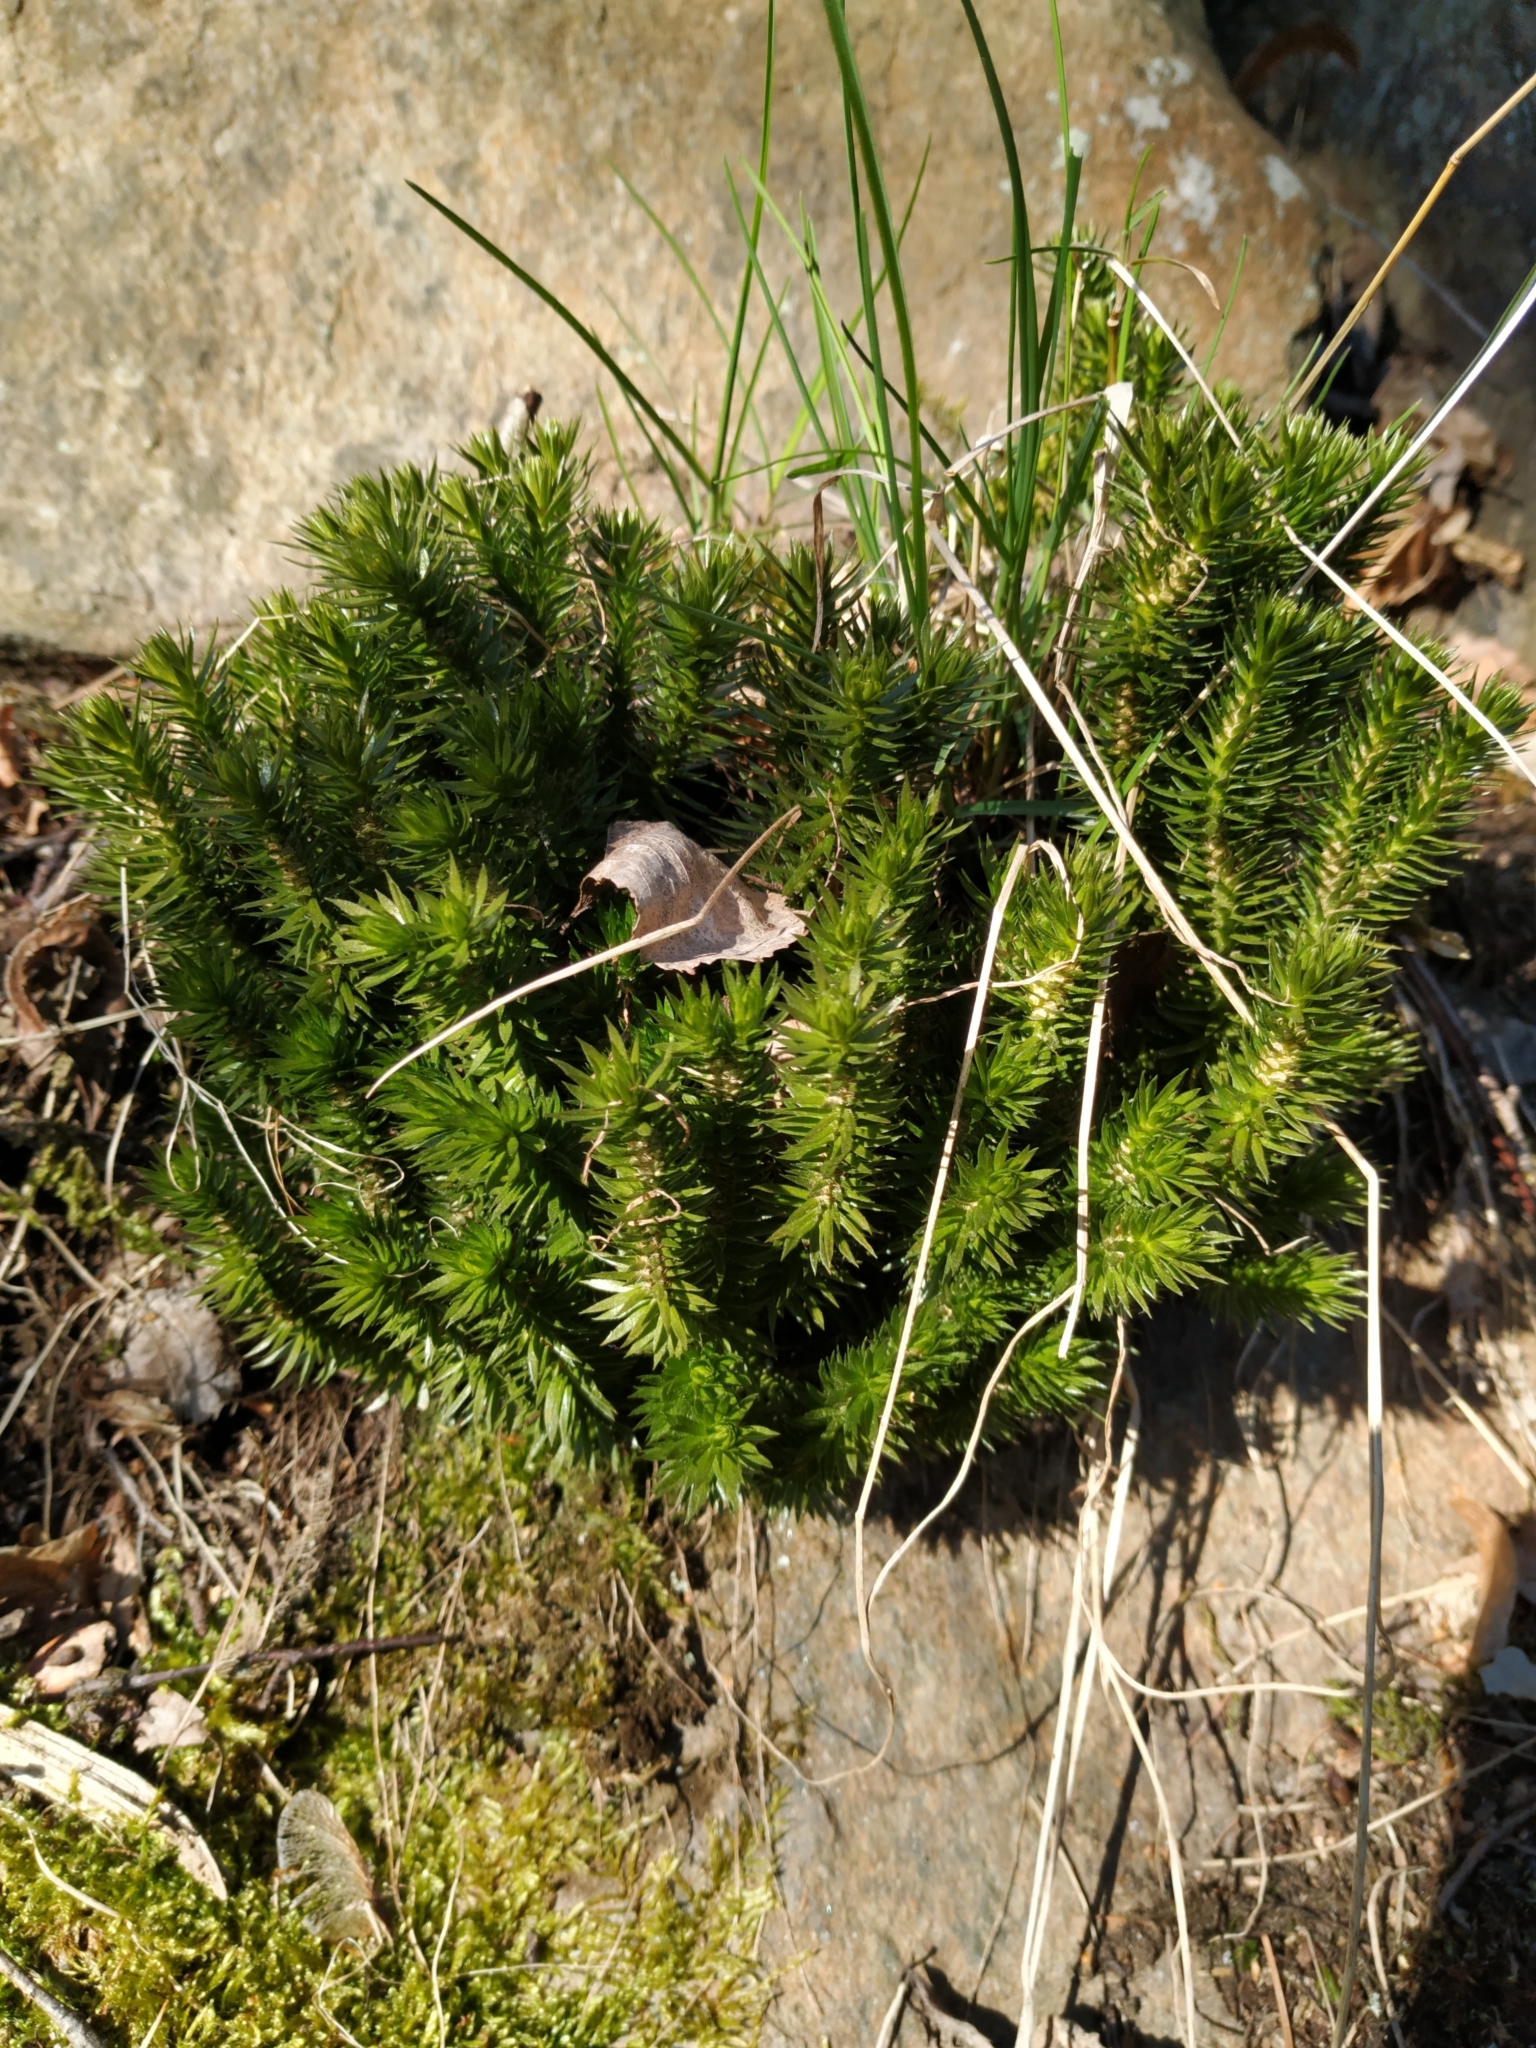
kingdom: Plantae
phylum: Tracheophyta
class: Lycopodiopsida
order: Lycopodiales
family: Lycopodiaceae
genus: Huperzia
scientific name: Huperzia selago
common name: Northern firmoss
